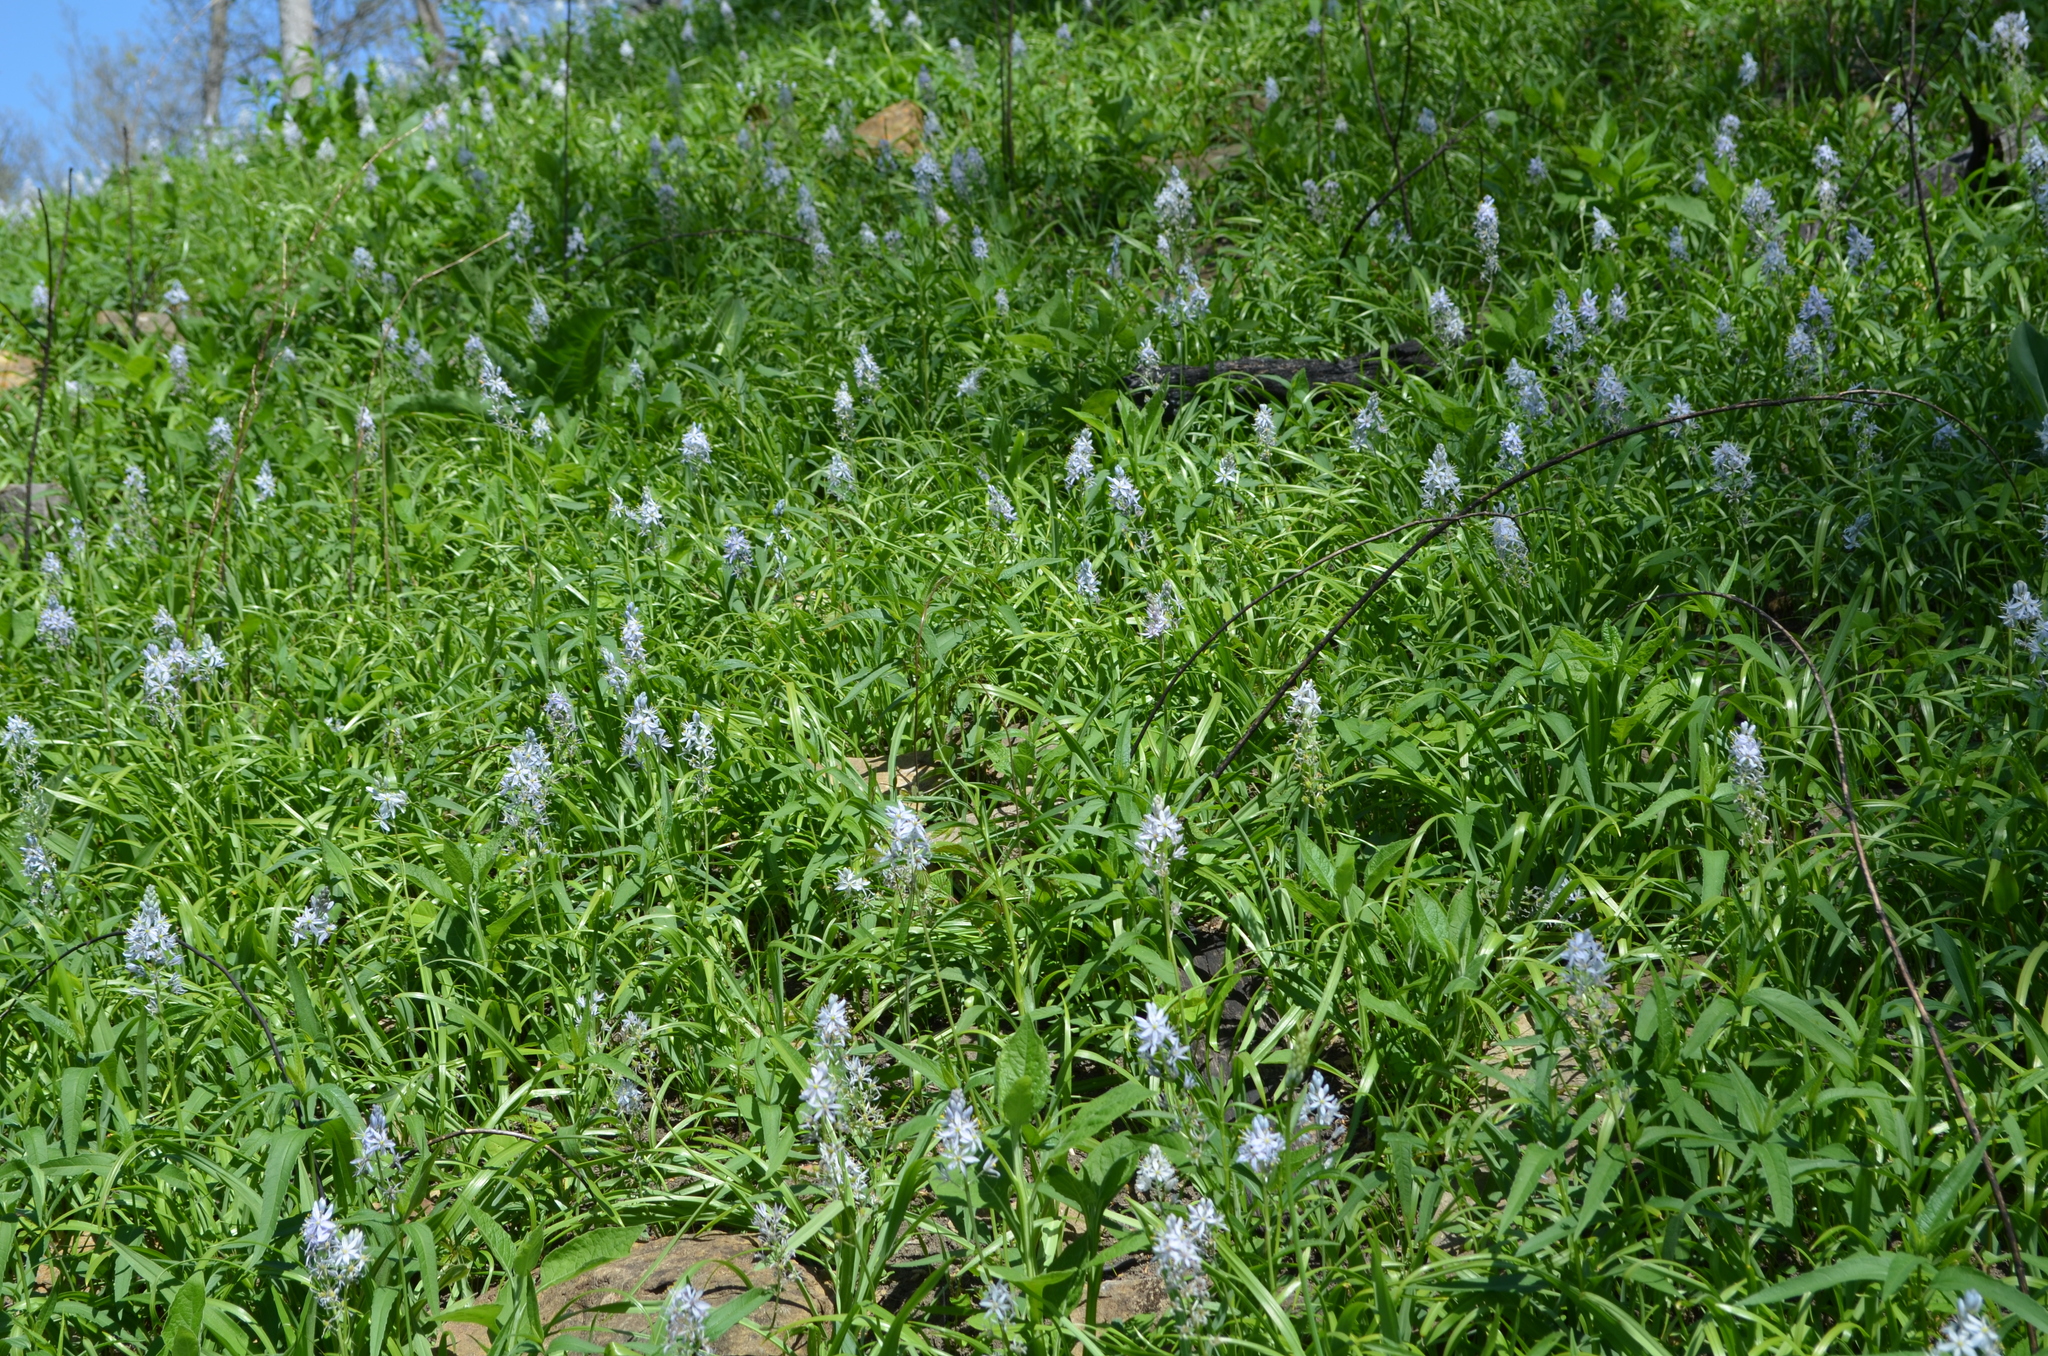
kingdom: Plantae
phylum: Tracheophyta
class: Liliopsida
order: Asparagales
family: Asparagaceae
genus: Camassia
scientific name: Camassia scilloides
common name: Wild hyacinth
